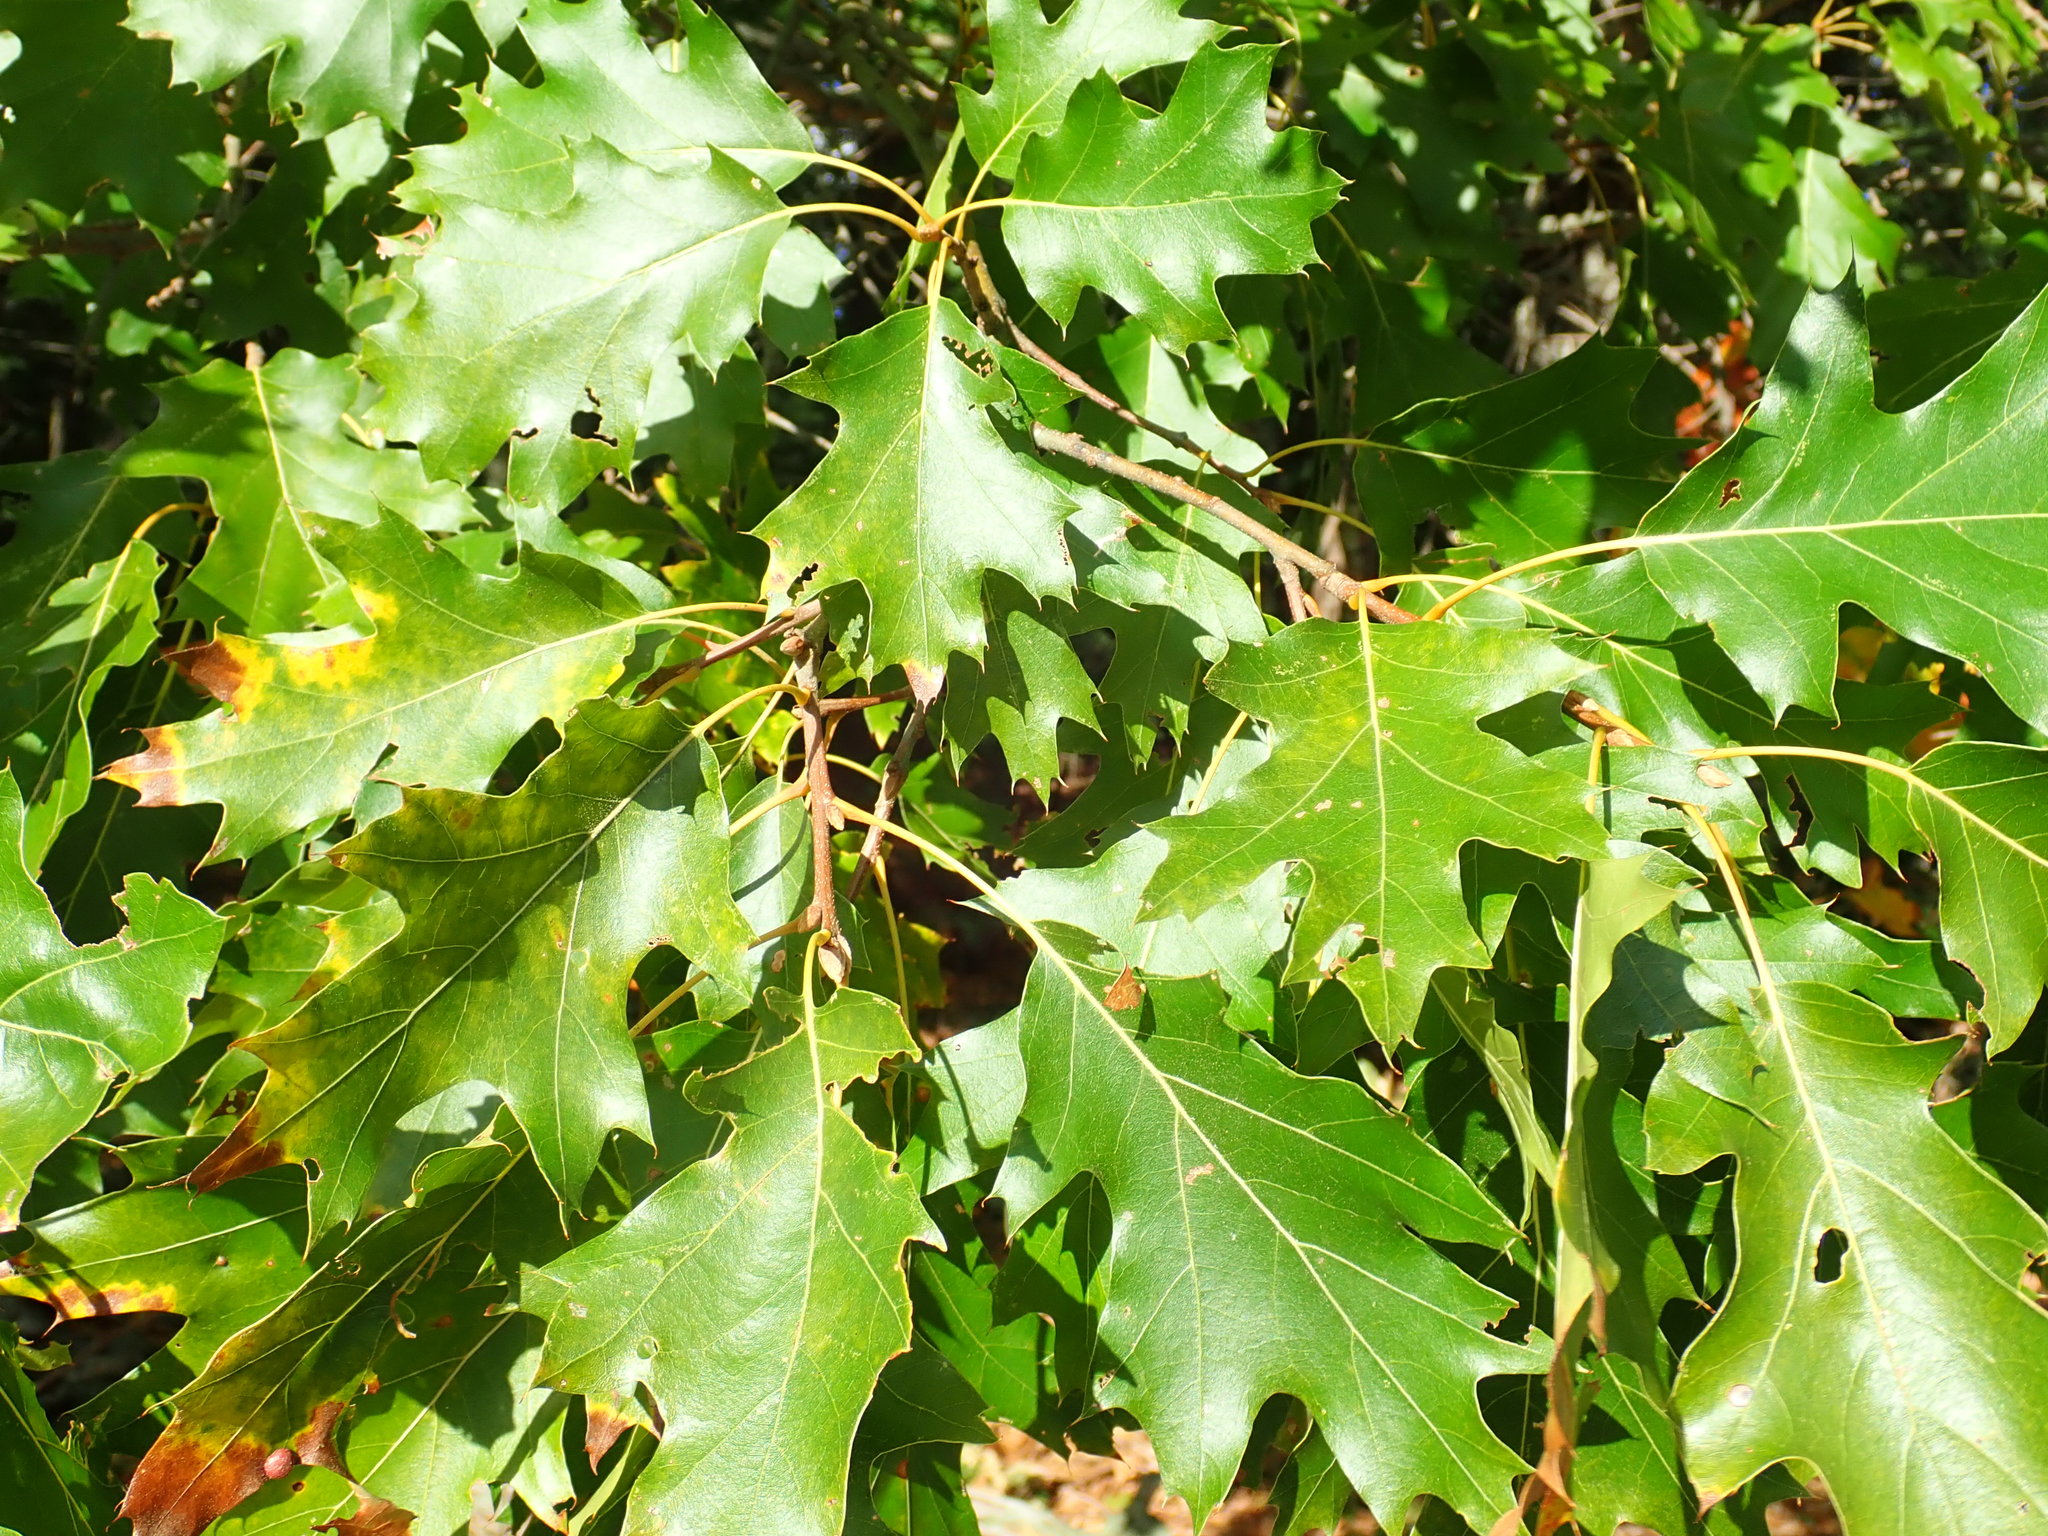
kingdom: Plantae
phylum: Tracheophyta
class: Magnoliopsida
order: Fagales
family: Fagaceae
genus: Quercus
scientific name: Quercus rubra
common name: Red oak
